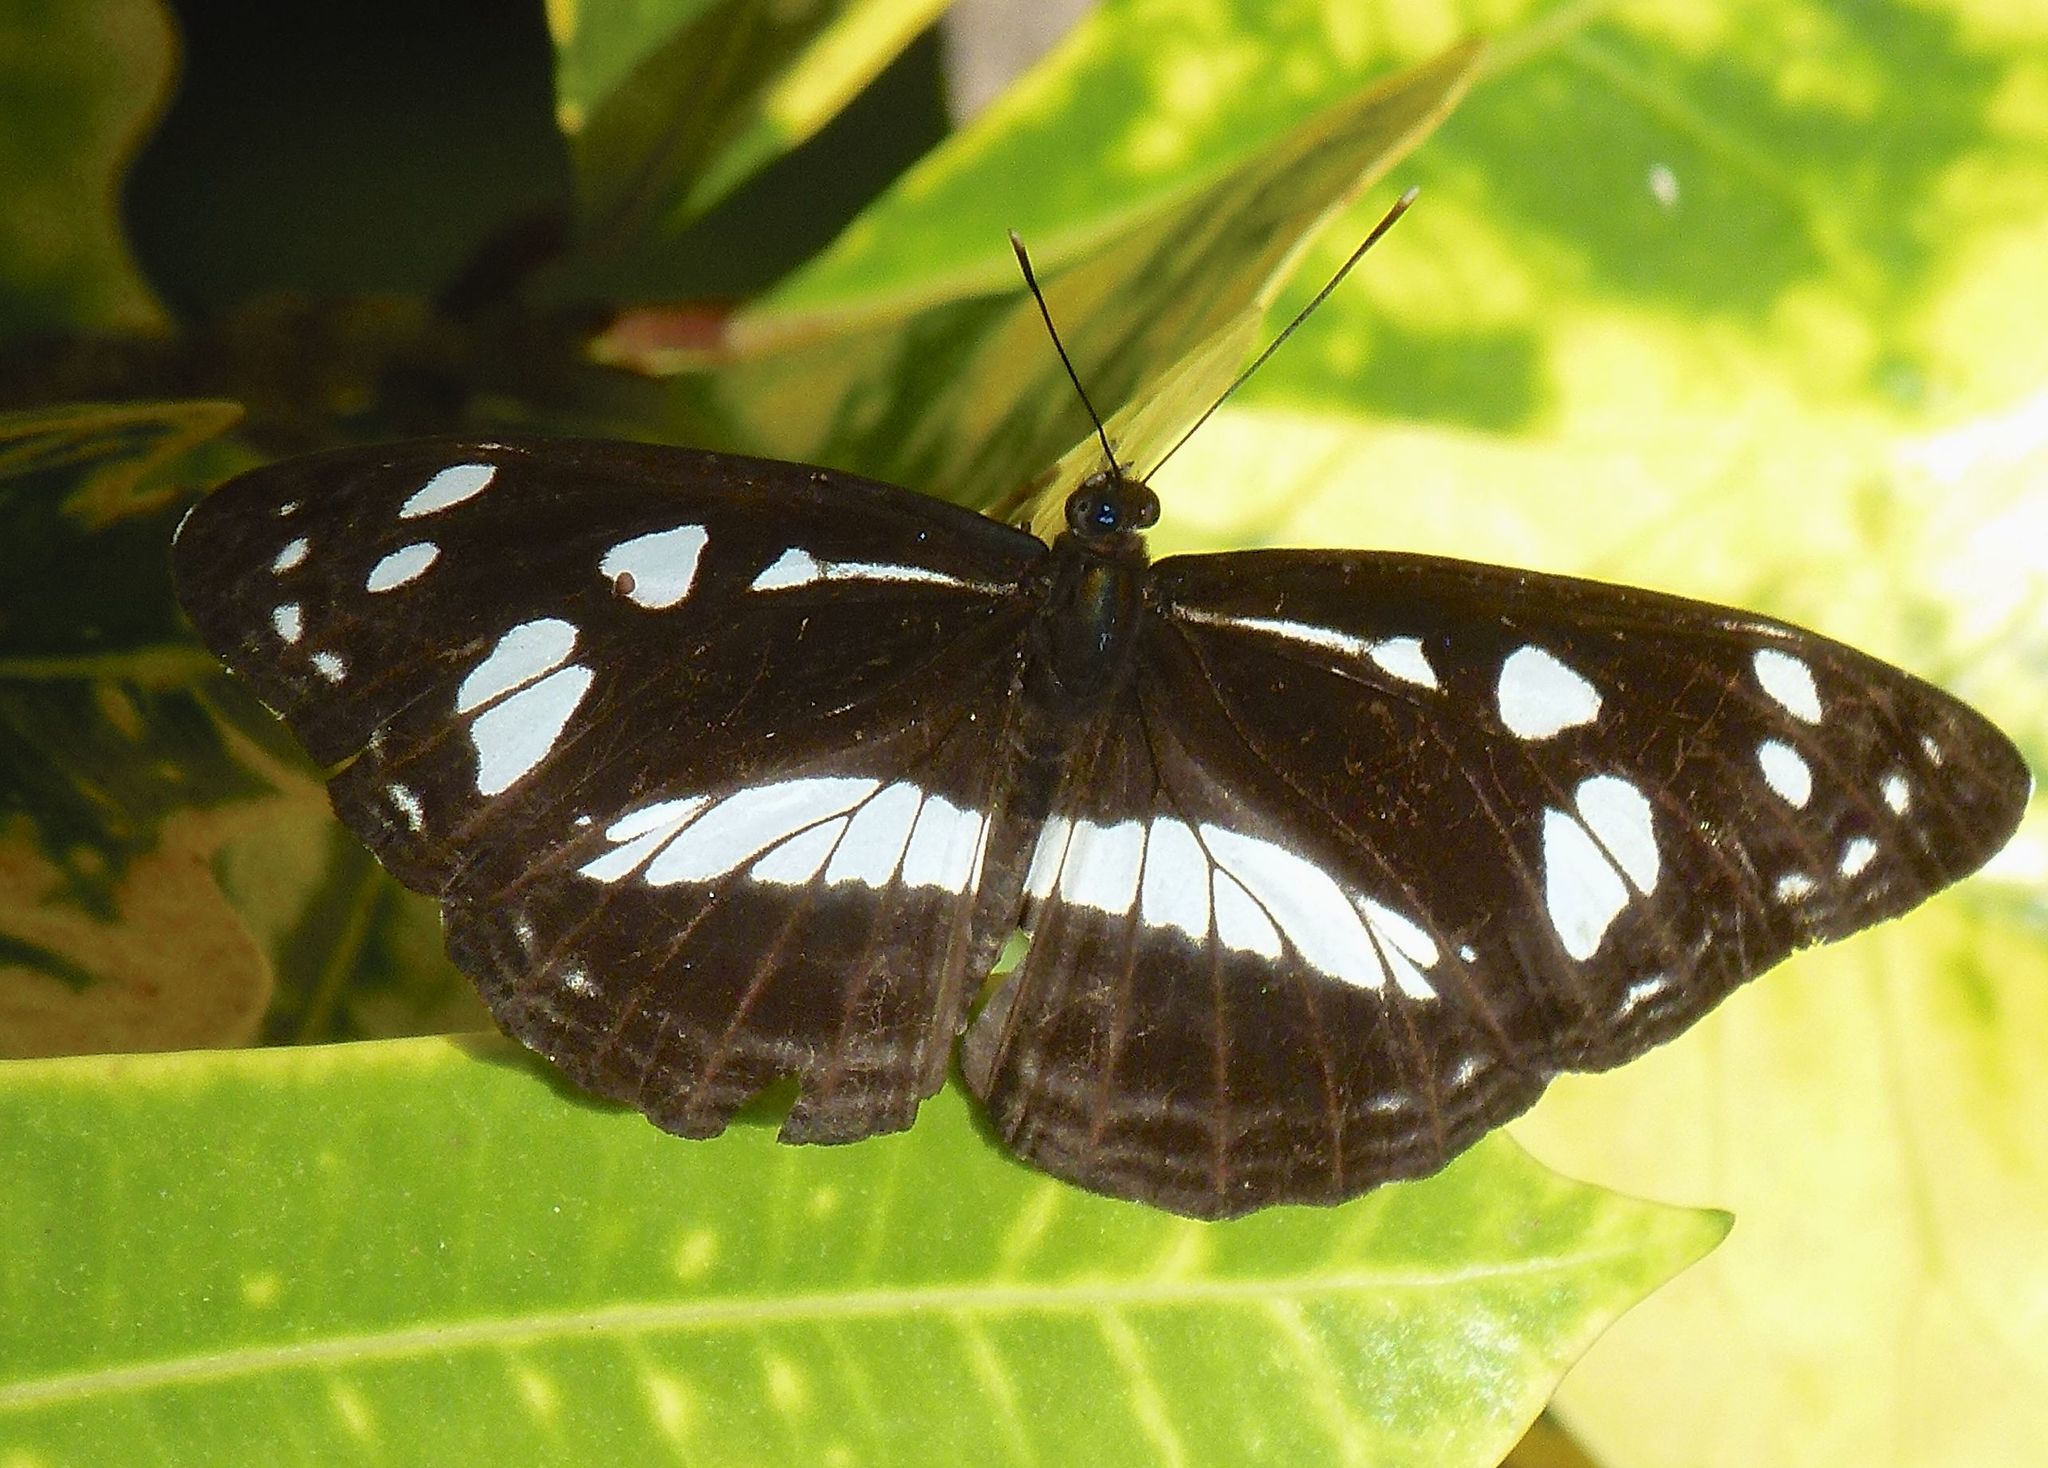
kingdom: Animalia
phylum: Arthropoda
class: Insecta
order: Lepidoptera
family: Nymphalidae
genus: Phaedyma
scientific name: Phaedyma shepherdi
